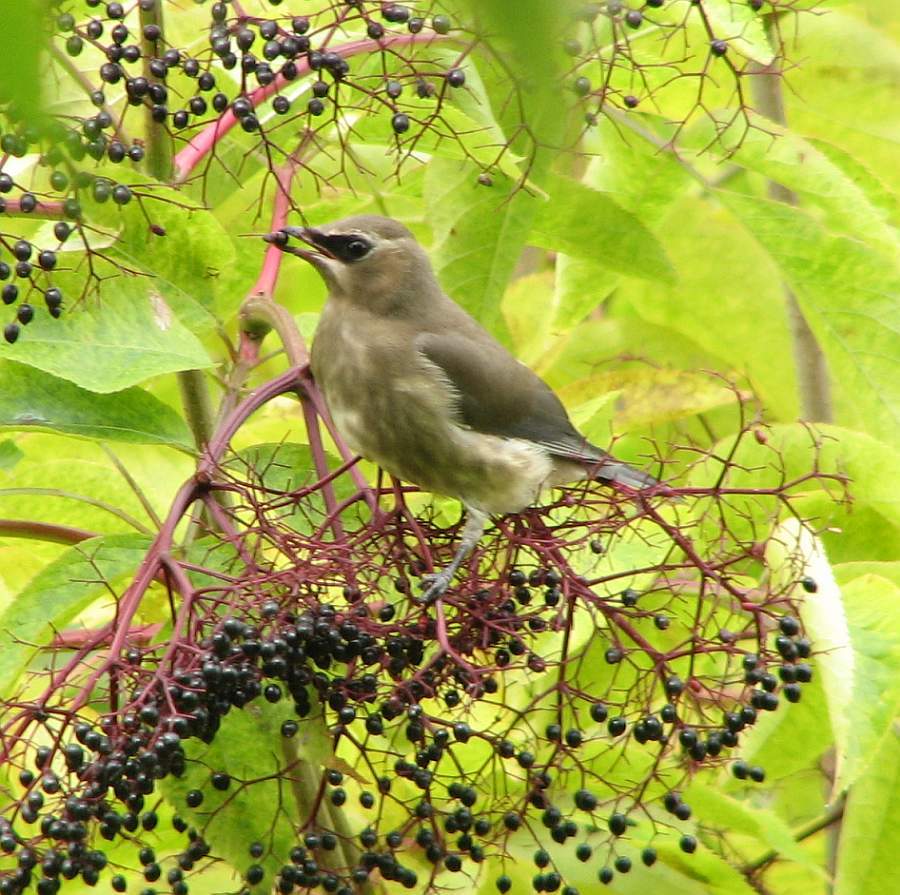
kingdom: Animalia
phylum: Chordata
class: Aves
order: Passeriformes
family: Bombycillidae
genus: Bombycilla
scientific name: Bombycilla cedrorum
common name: Cedar waxwing
